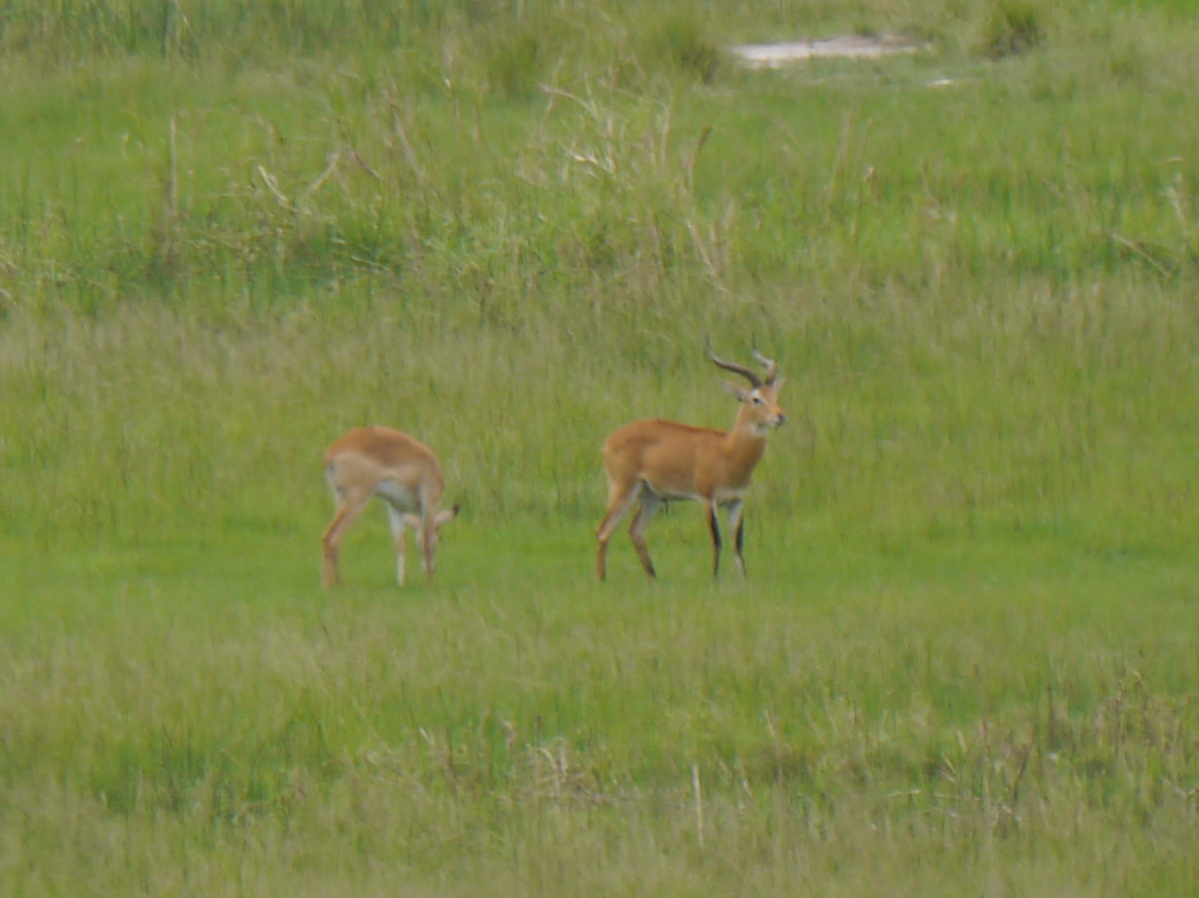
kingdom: Animalia
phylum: Chordata
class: Mammalia
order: Artiodactyla
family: Bovidae
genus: Kobus
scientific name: Kobus kob
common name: Kob
